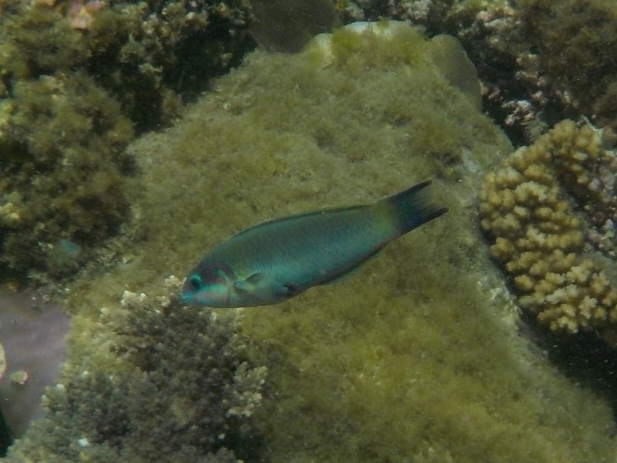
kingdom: Animalia
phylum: Chordata
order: Perciformes
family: Labridae
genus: Thalassoma
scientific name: Thalassoma genivittatum
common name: Red-cheek wrasse
